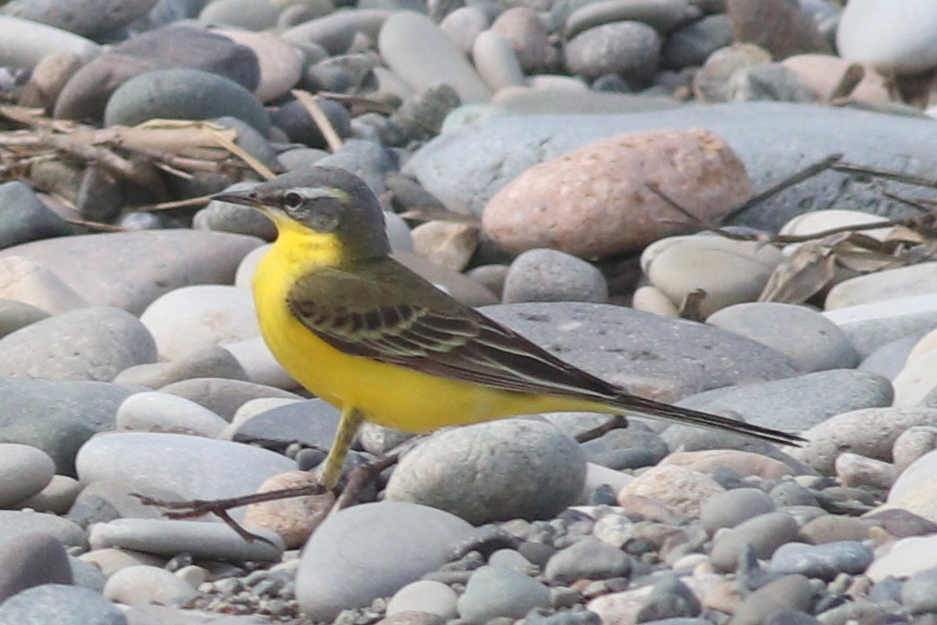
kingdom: Animalia
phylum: Chordata
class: Aves
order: Passeriformes
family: Motacillidae
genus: Motacilla
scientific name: Motacilla flava
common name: Western yellow wagtail
